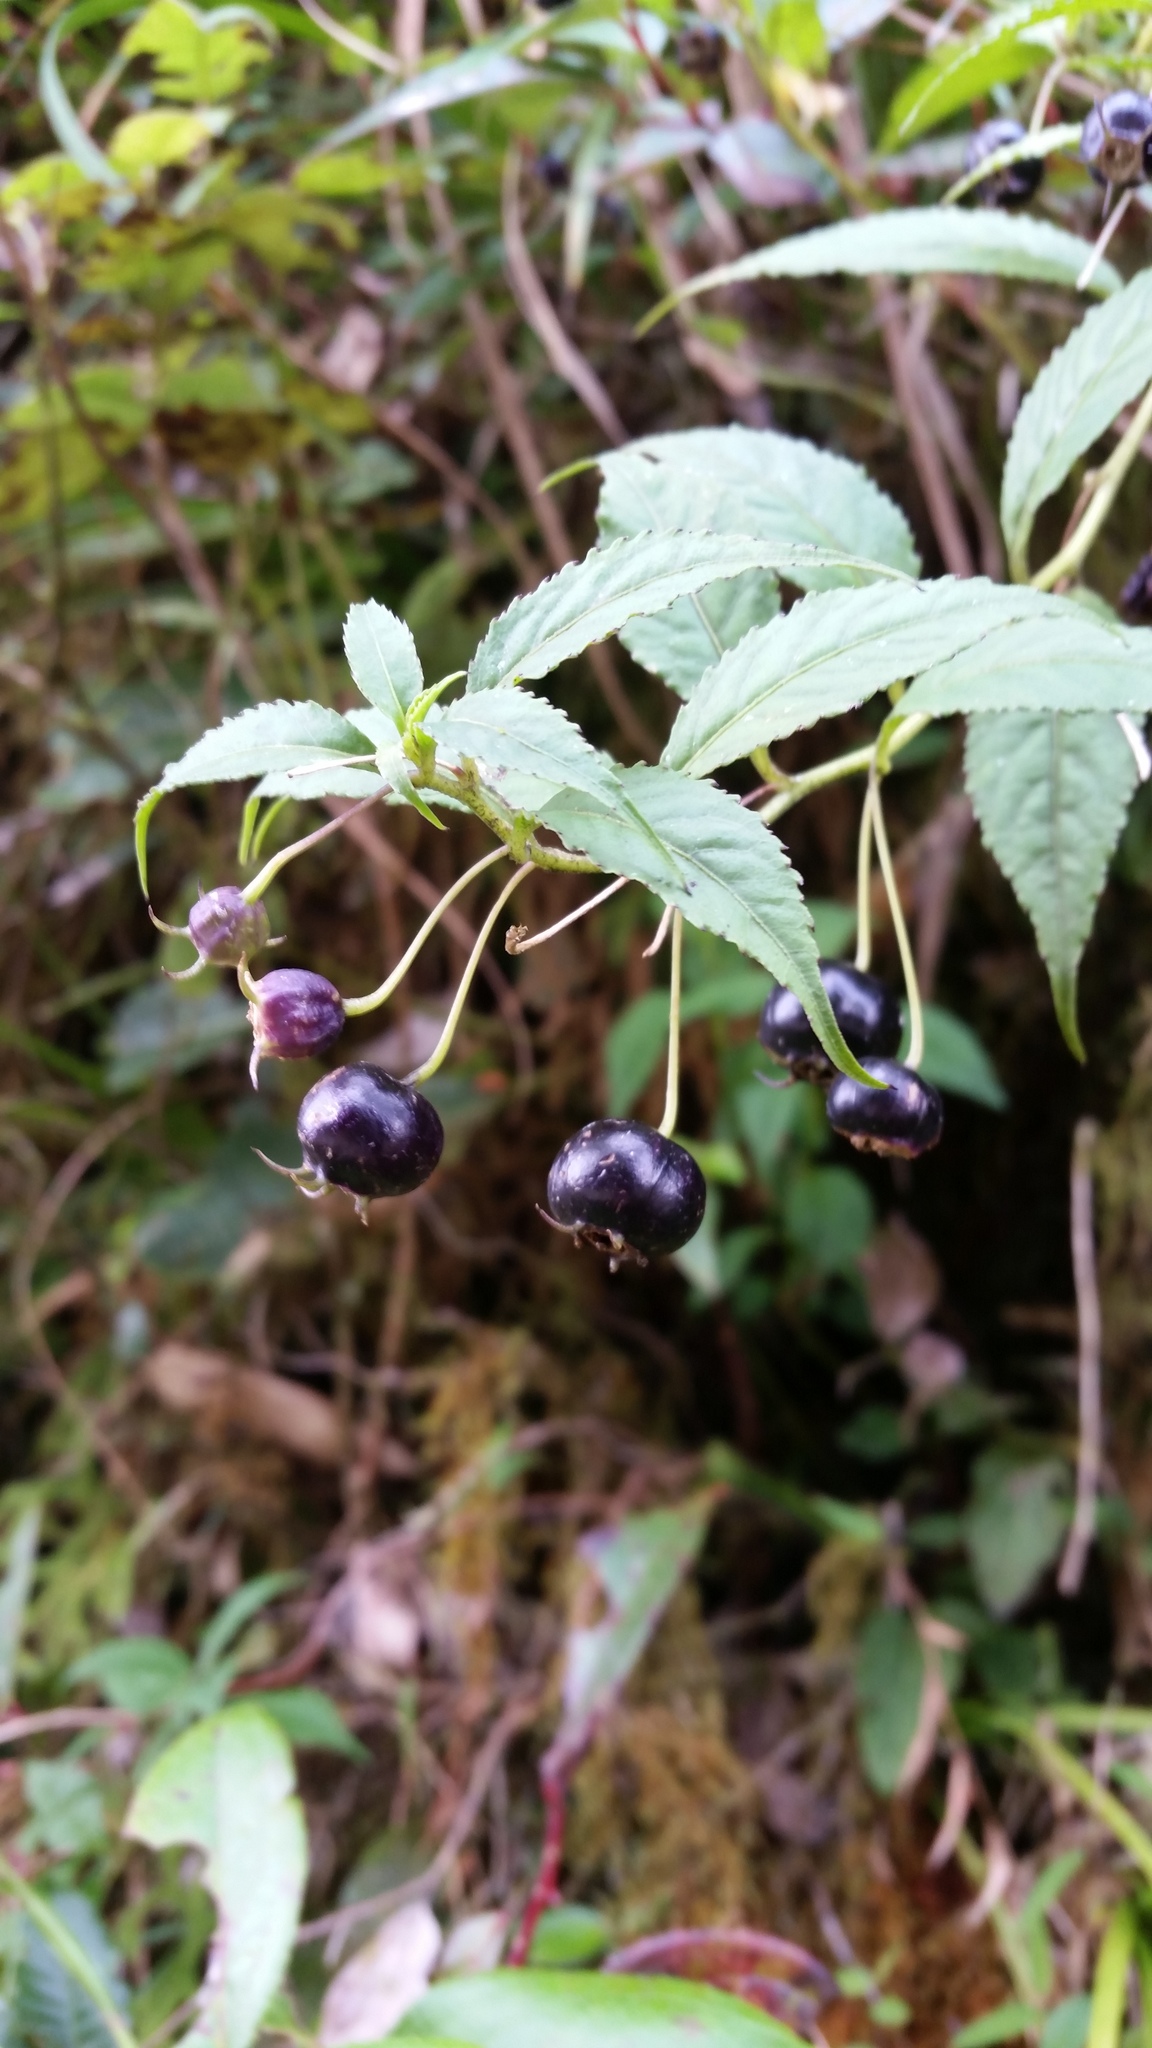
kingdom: Plantae
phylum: Tracheophyta
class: Magnoliopsida
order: Asterales
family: Campanulaceae
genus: Lobelia
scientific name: Lobelia montana
